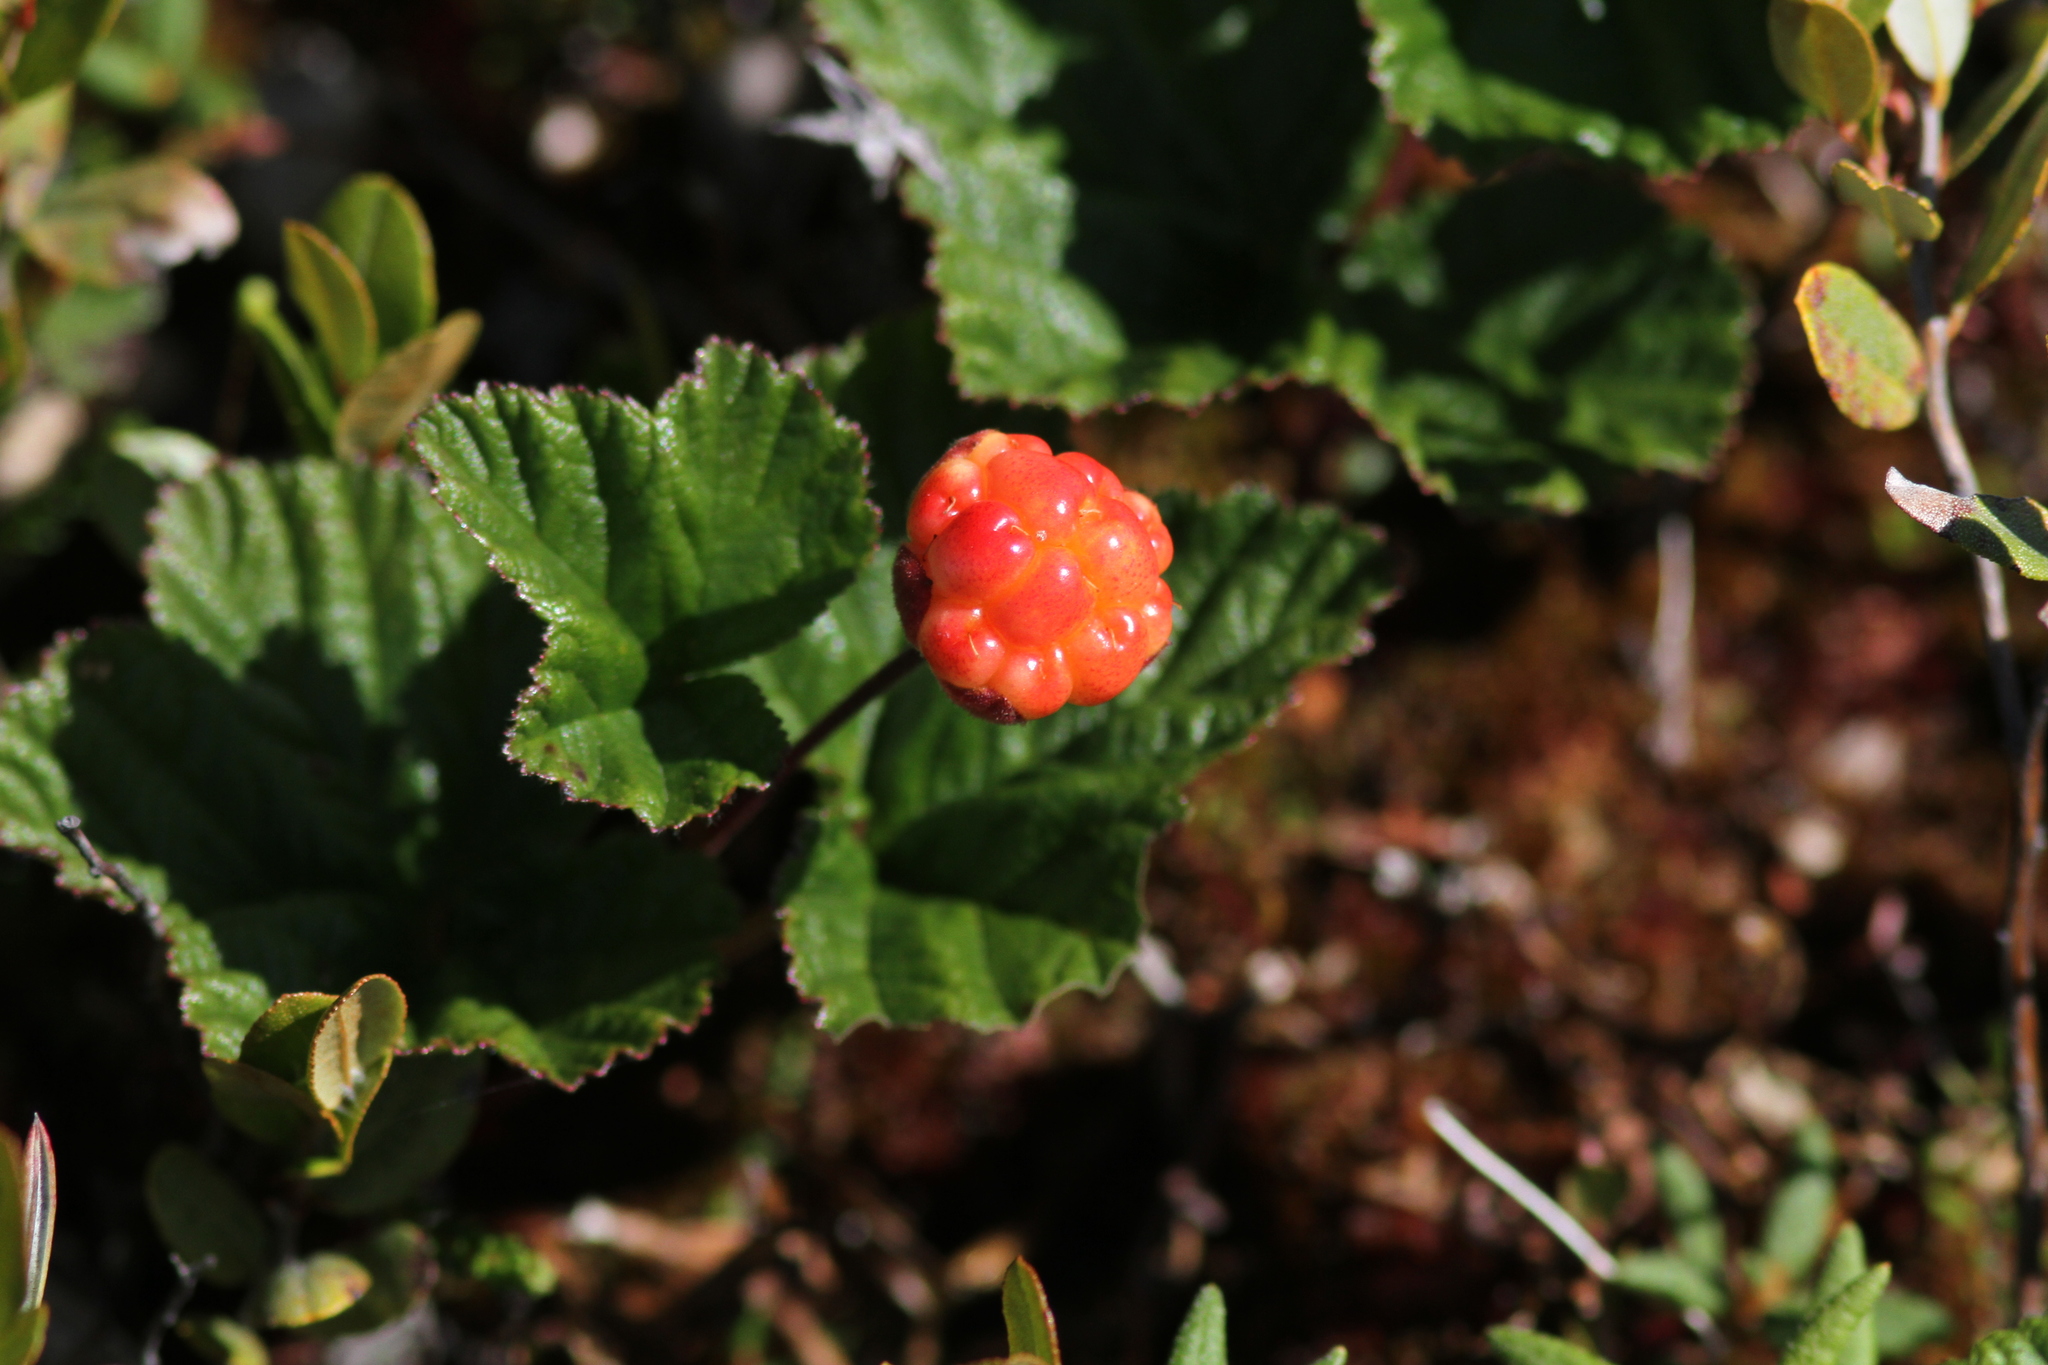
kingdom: Plantae
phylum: Tracheophyta
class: Magnoliopsida
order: Rosales
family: Rosaceae
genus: Rubus
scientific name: Rubus chamaemorus
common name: Cloudberry
